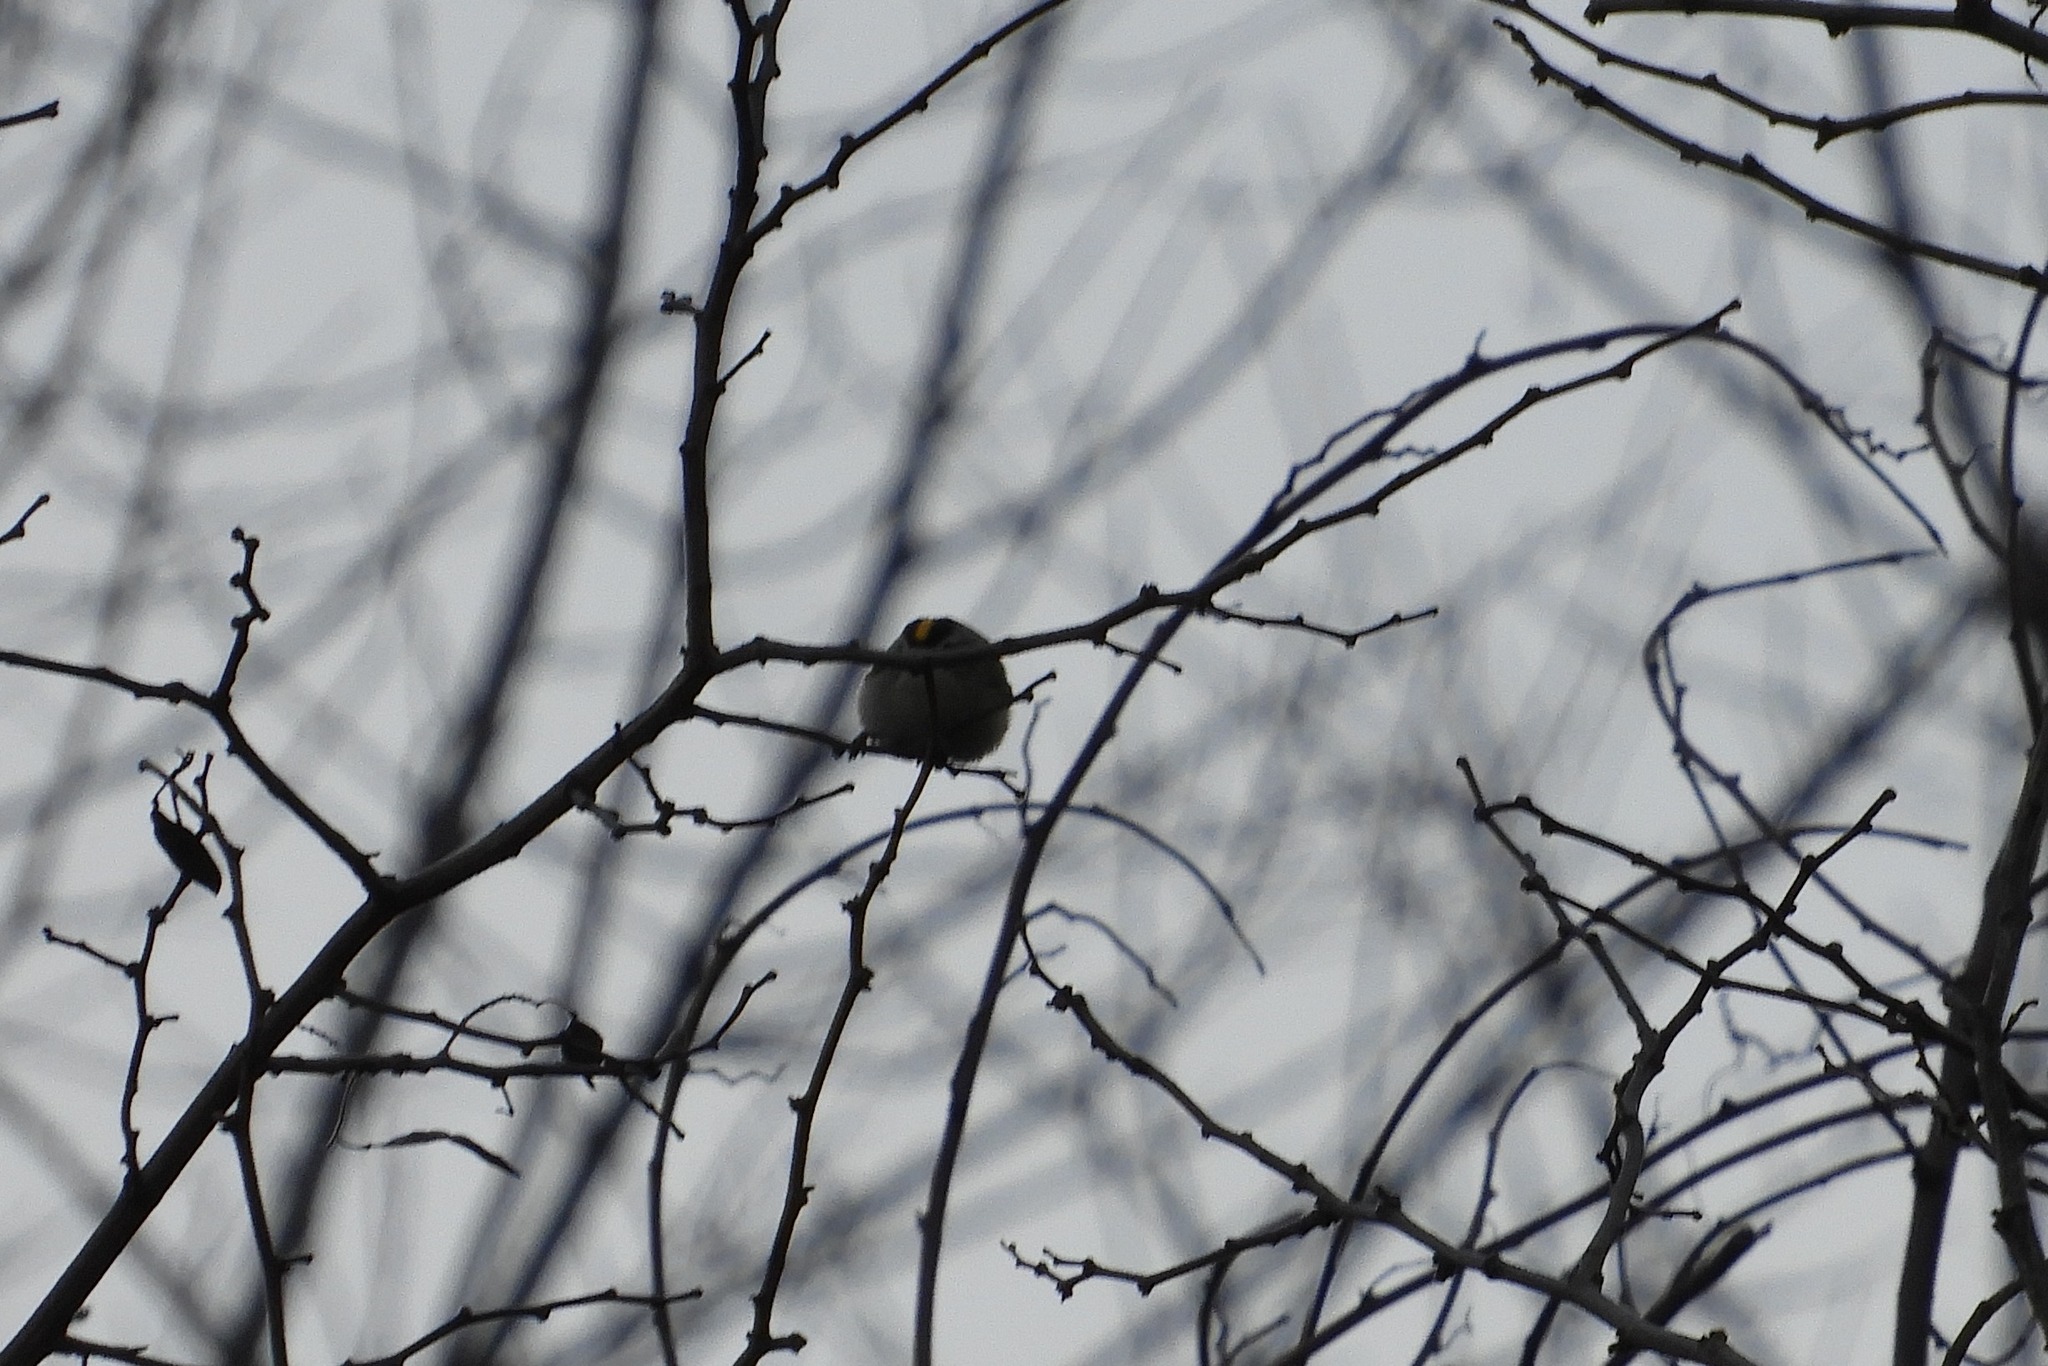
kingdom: Animalia
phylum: Chordata
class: Aves
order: Passeriformes
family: Regulidae
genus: Regulus
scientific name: Regulus satrapa
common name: Golden-crowned kinglet
